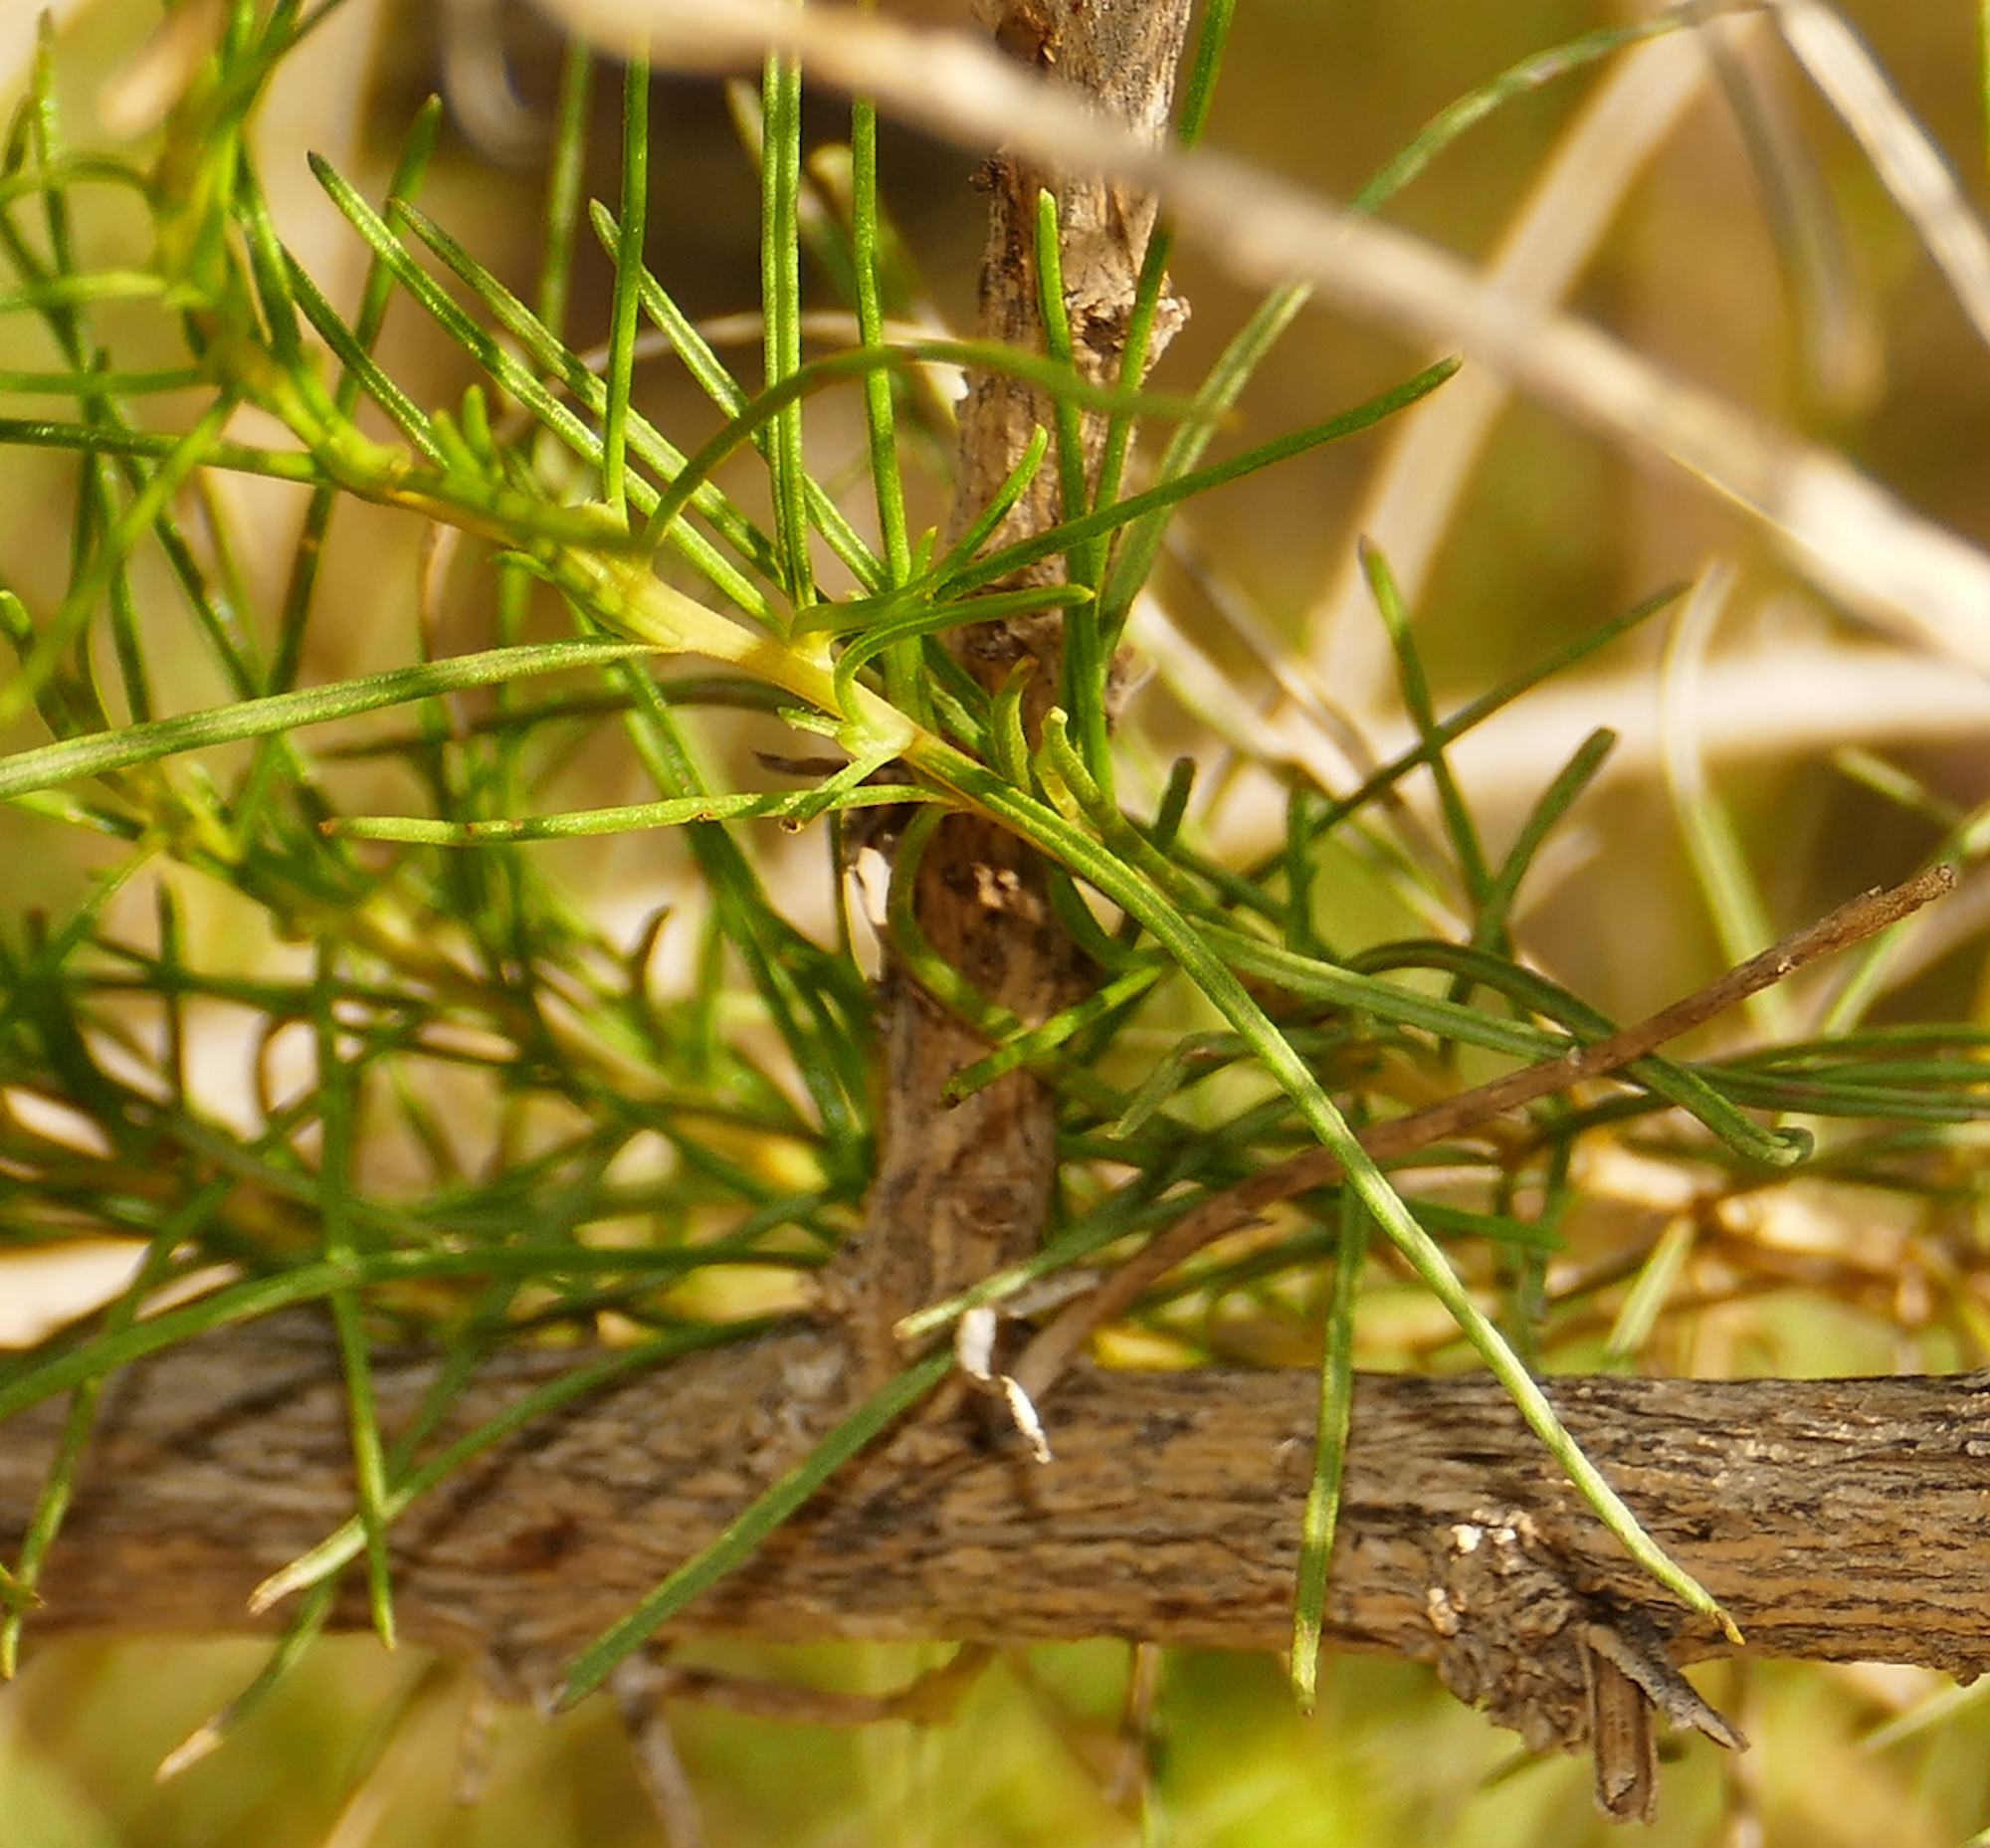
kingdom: Plantae
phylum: Tracheophyta
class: Magnoliopsida
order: Asterales
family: Asteraceae
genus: Ambrosia
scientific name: Ambrosia monogyra
